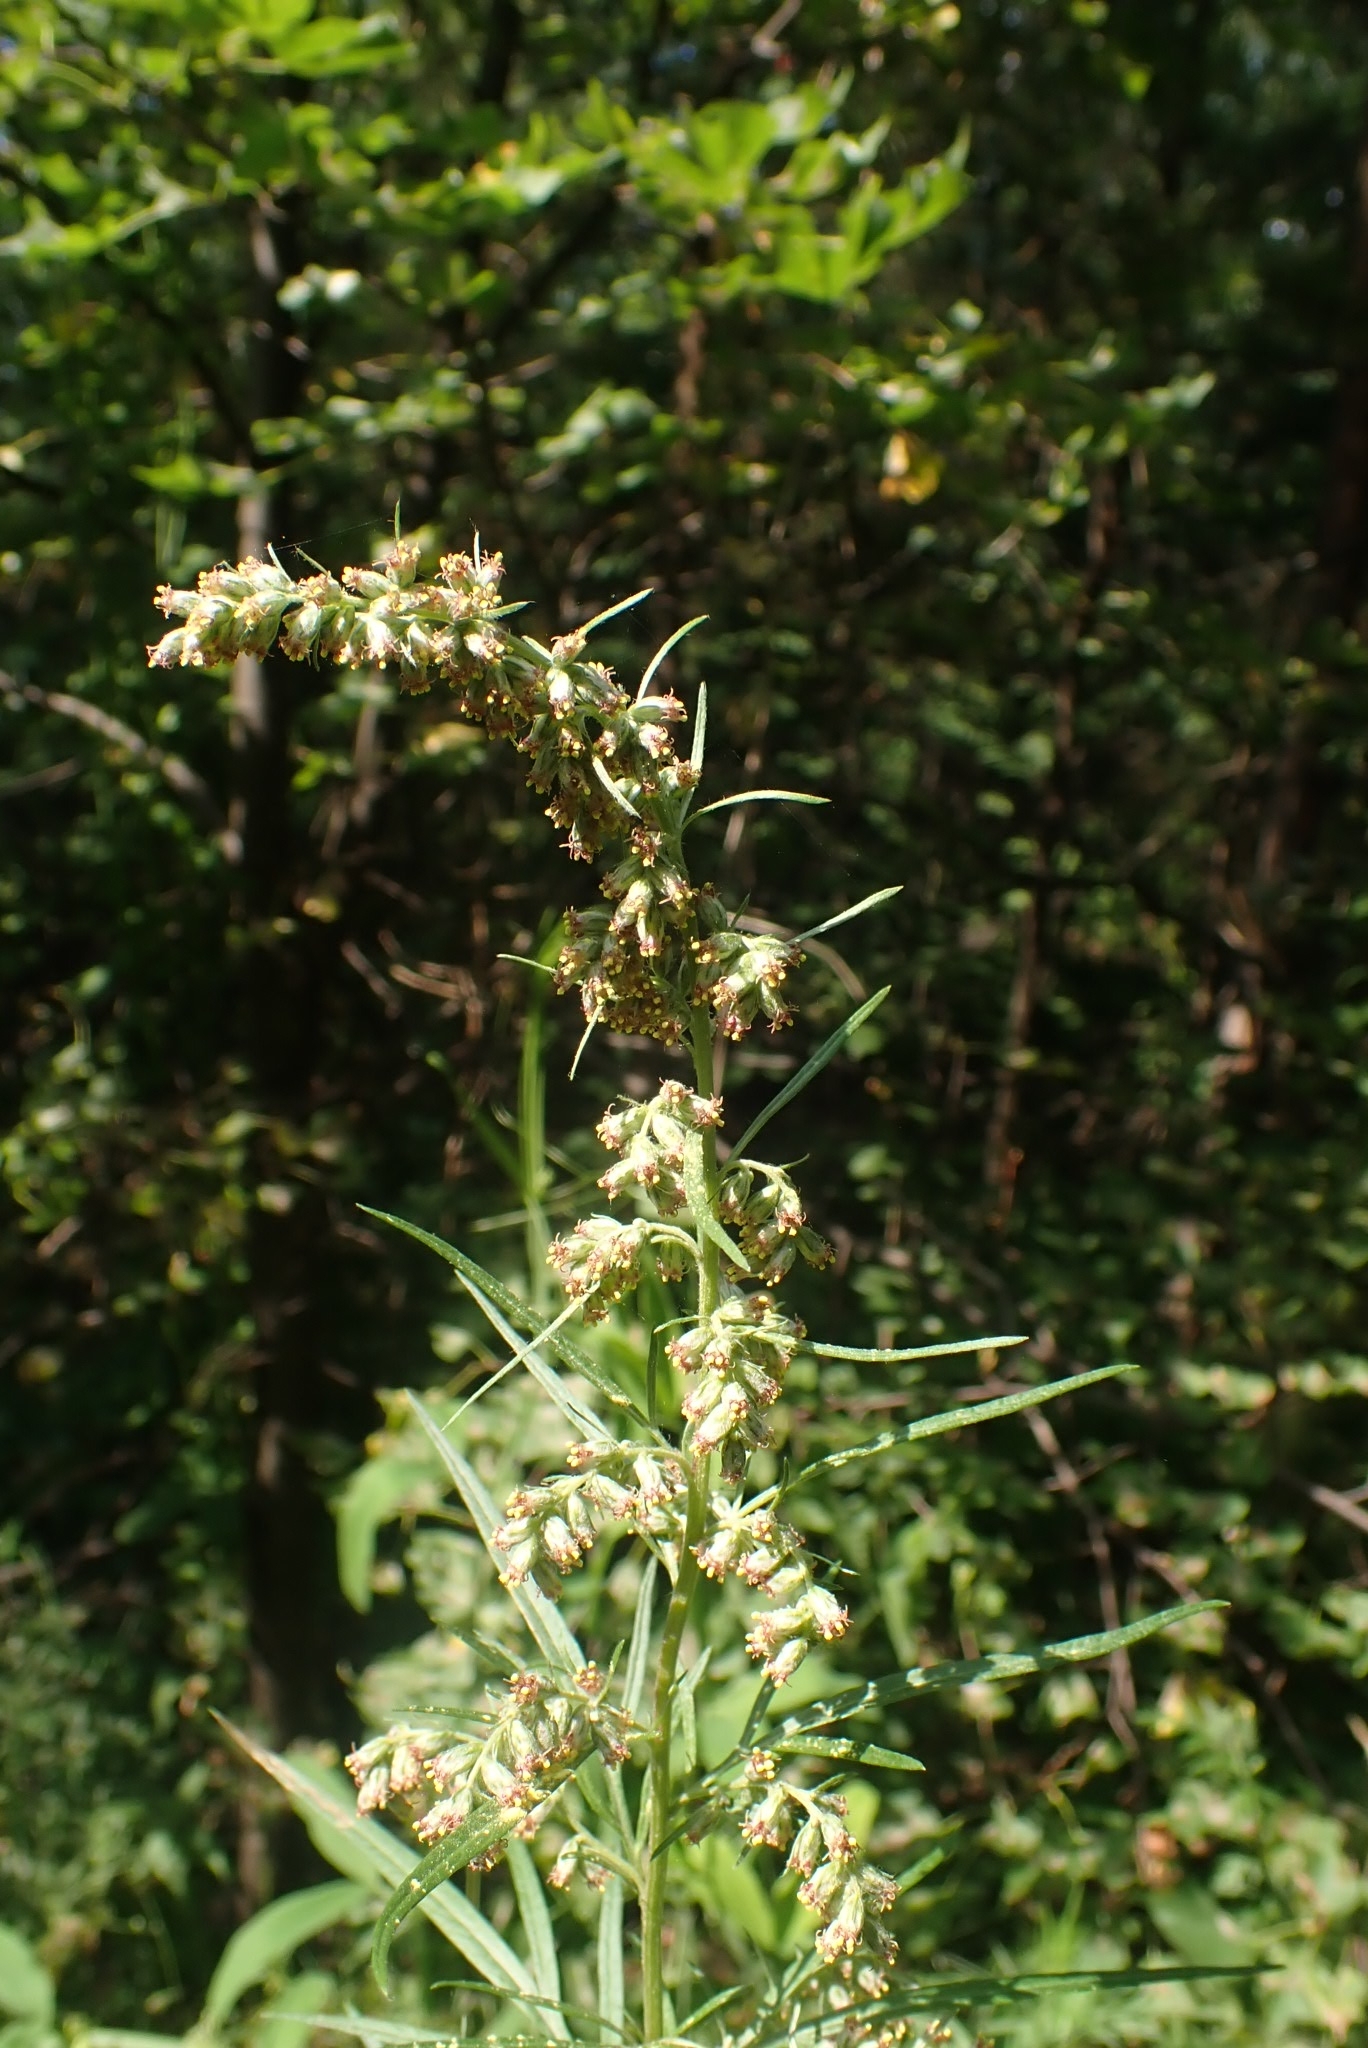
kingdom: Plantae
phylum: Tracheophyta
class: Magnoliopsida
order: Asterales
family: Asteraceae
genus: Artemisia
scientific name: Artemisia vulgaris
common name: Mugwort
